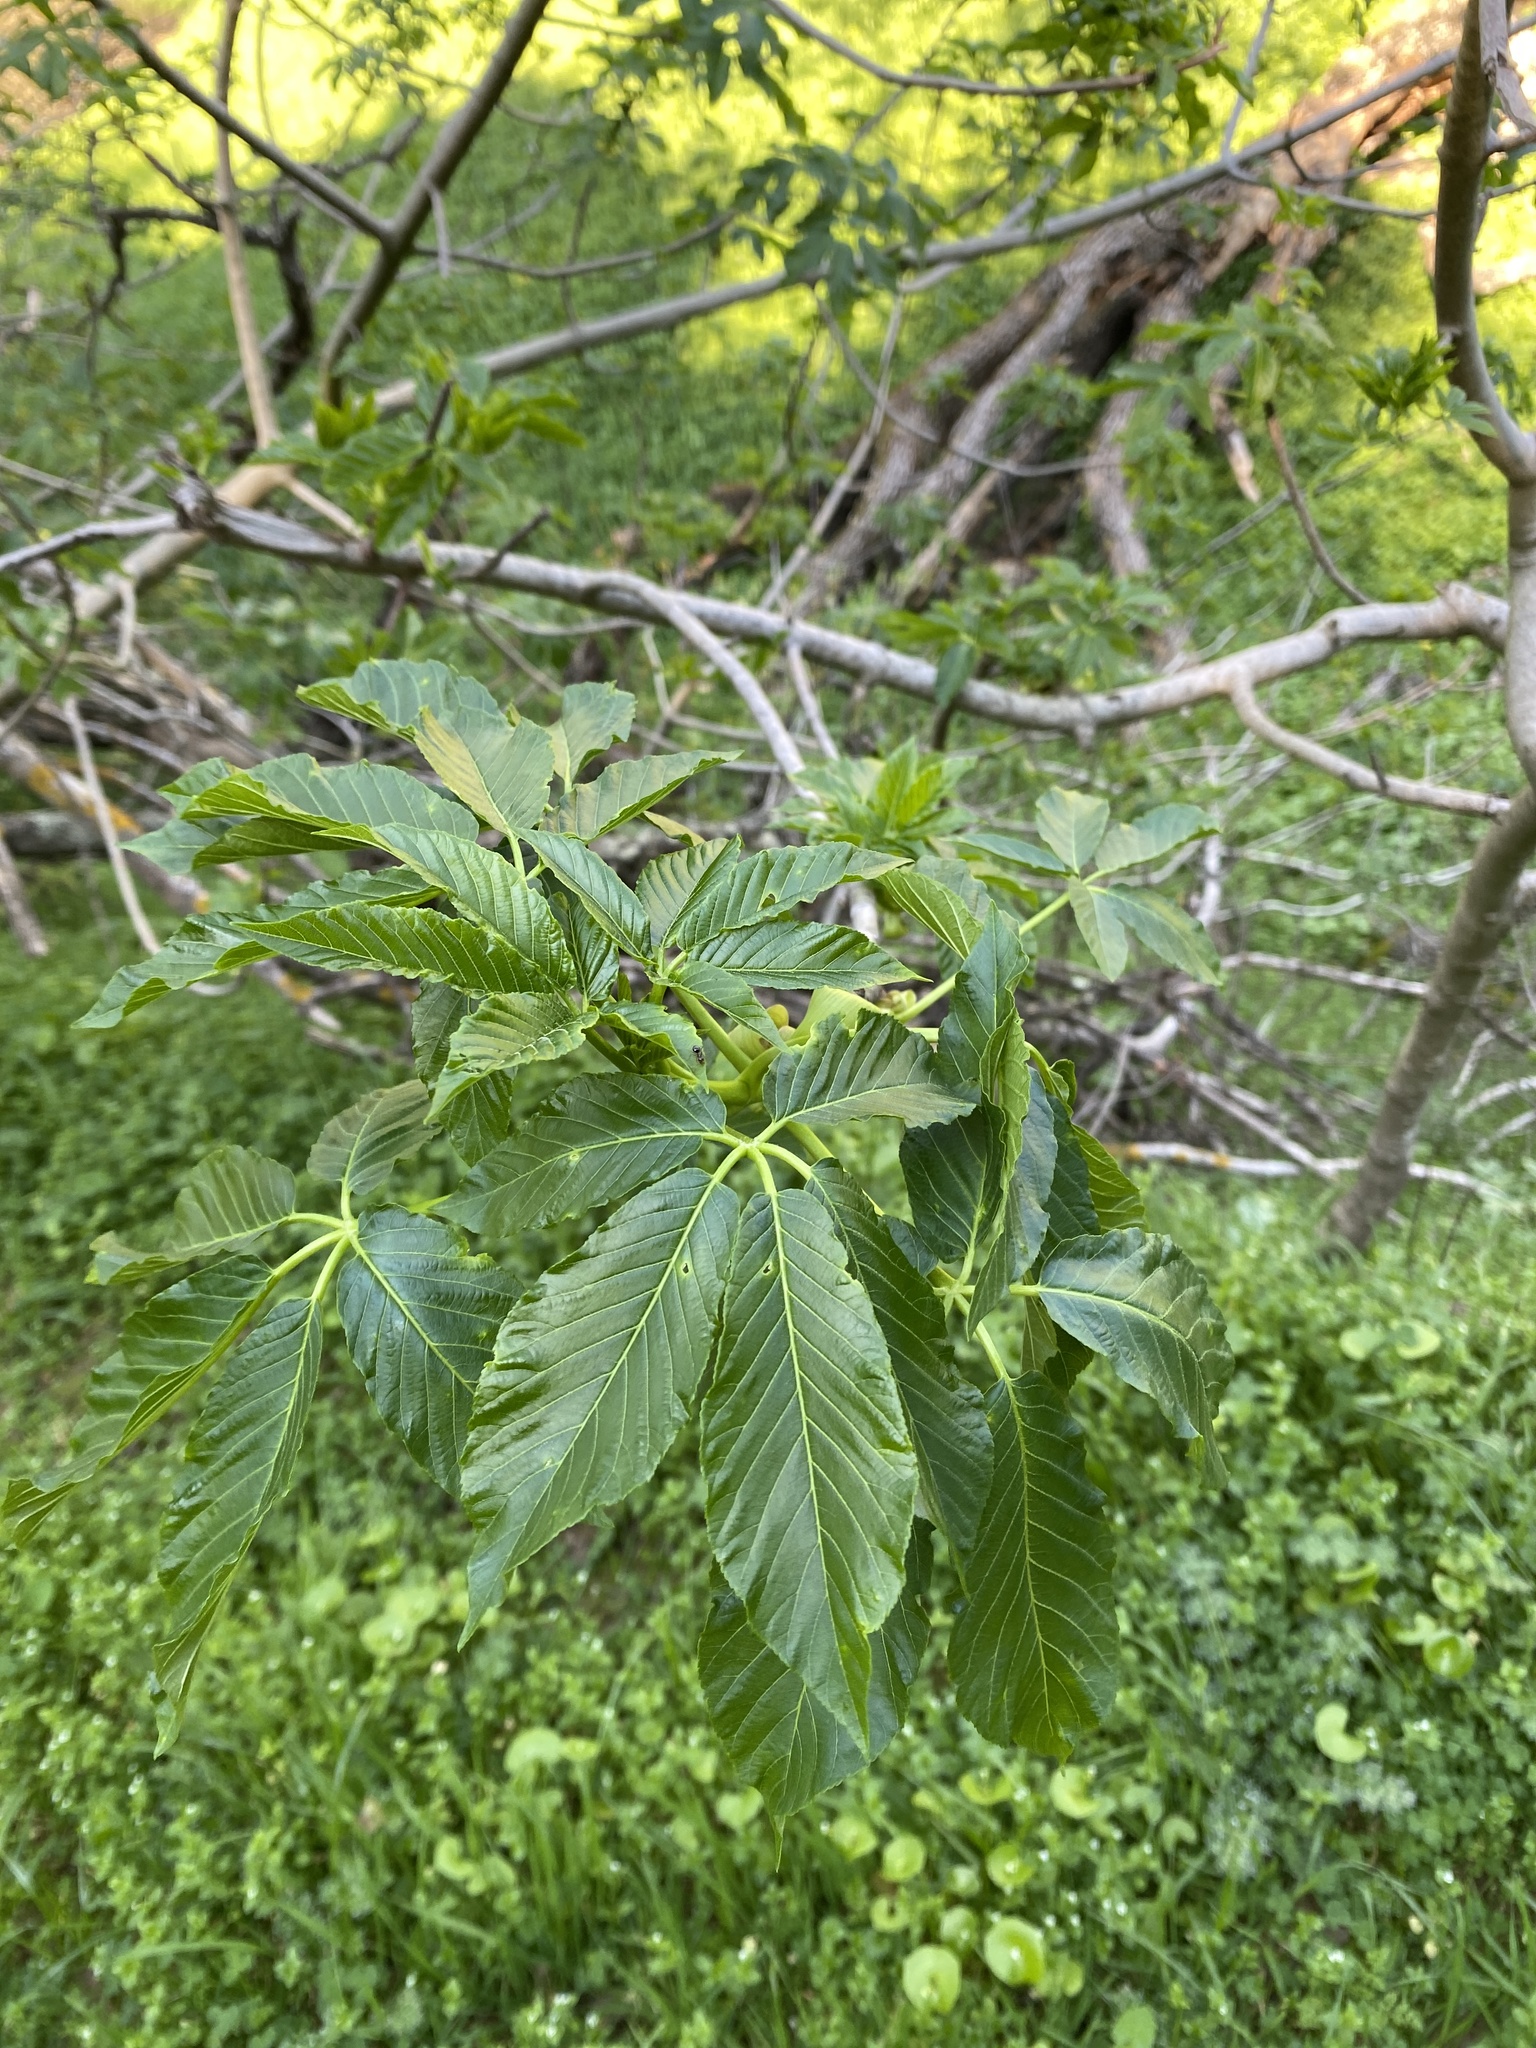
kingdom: Plantae
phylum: Tracheophyta
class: Magnoliopsida
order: Sapindales
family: Sapindaceae
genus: Aesculus
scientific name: Aesculus californica
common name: California buckeye
